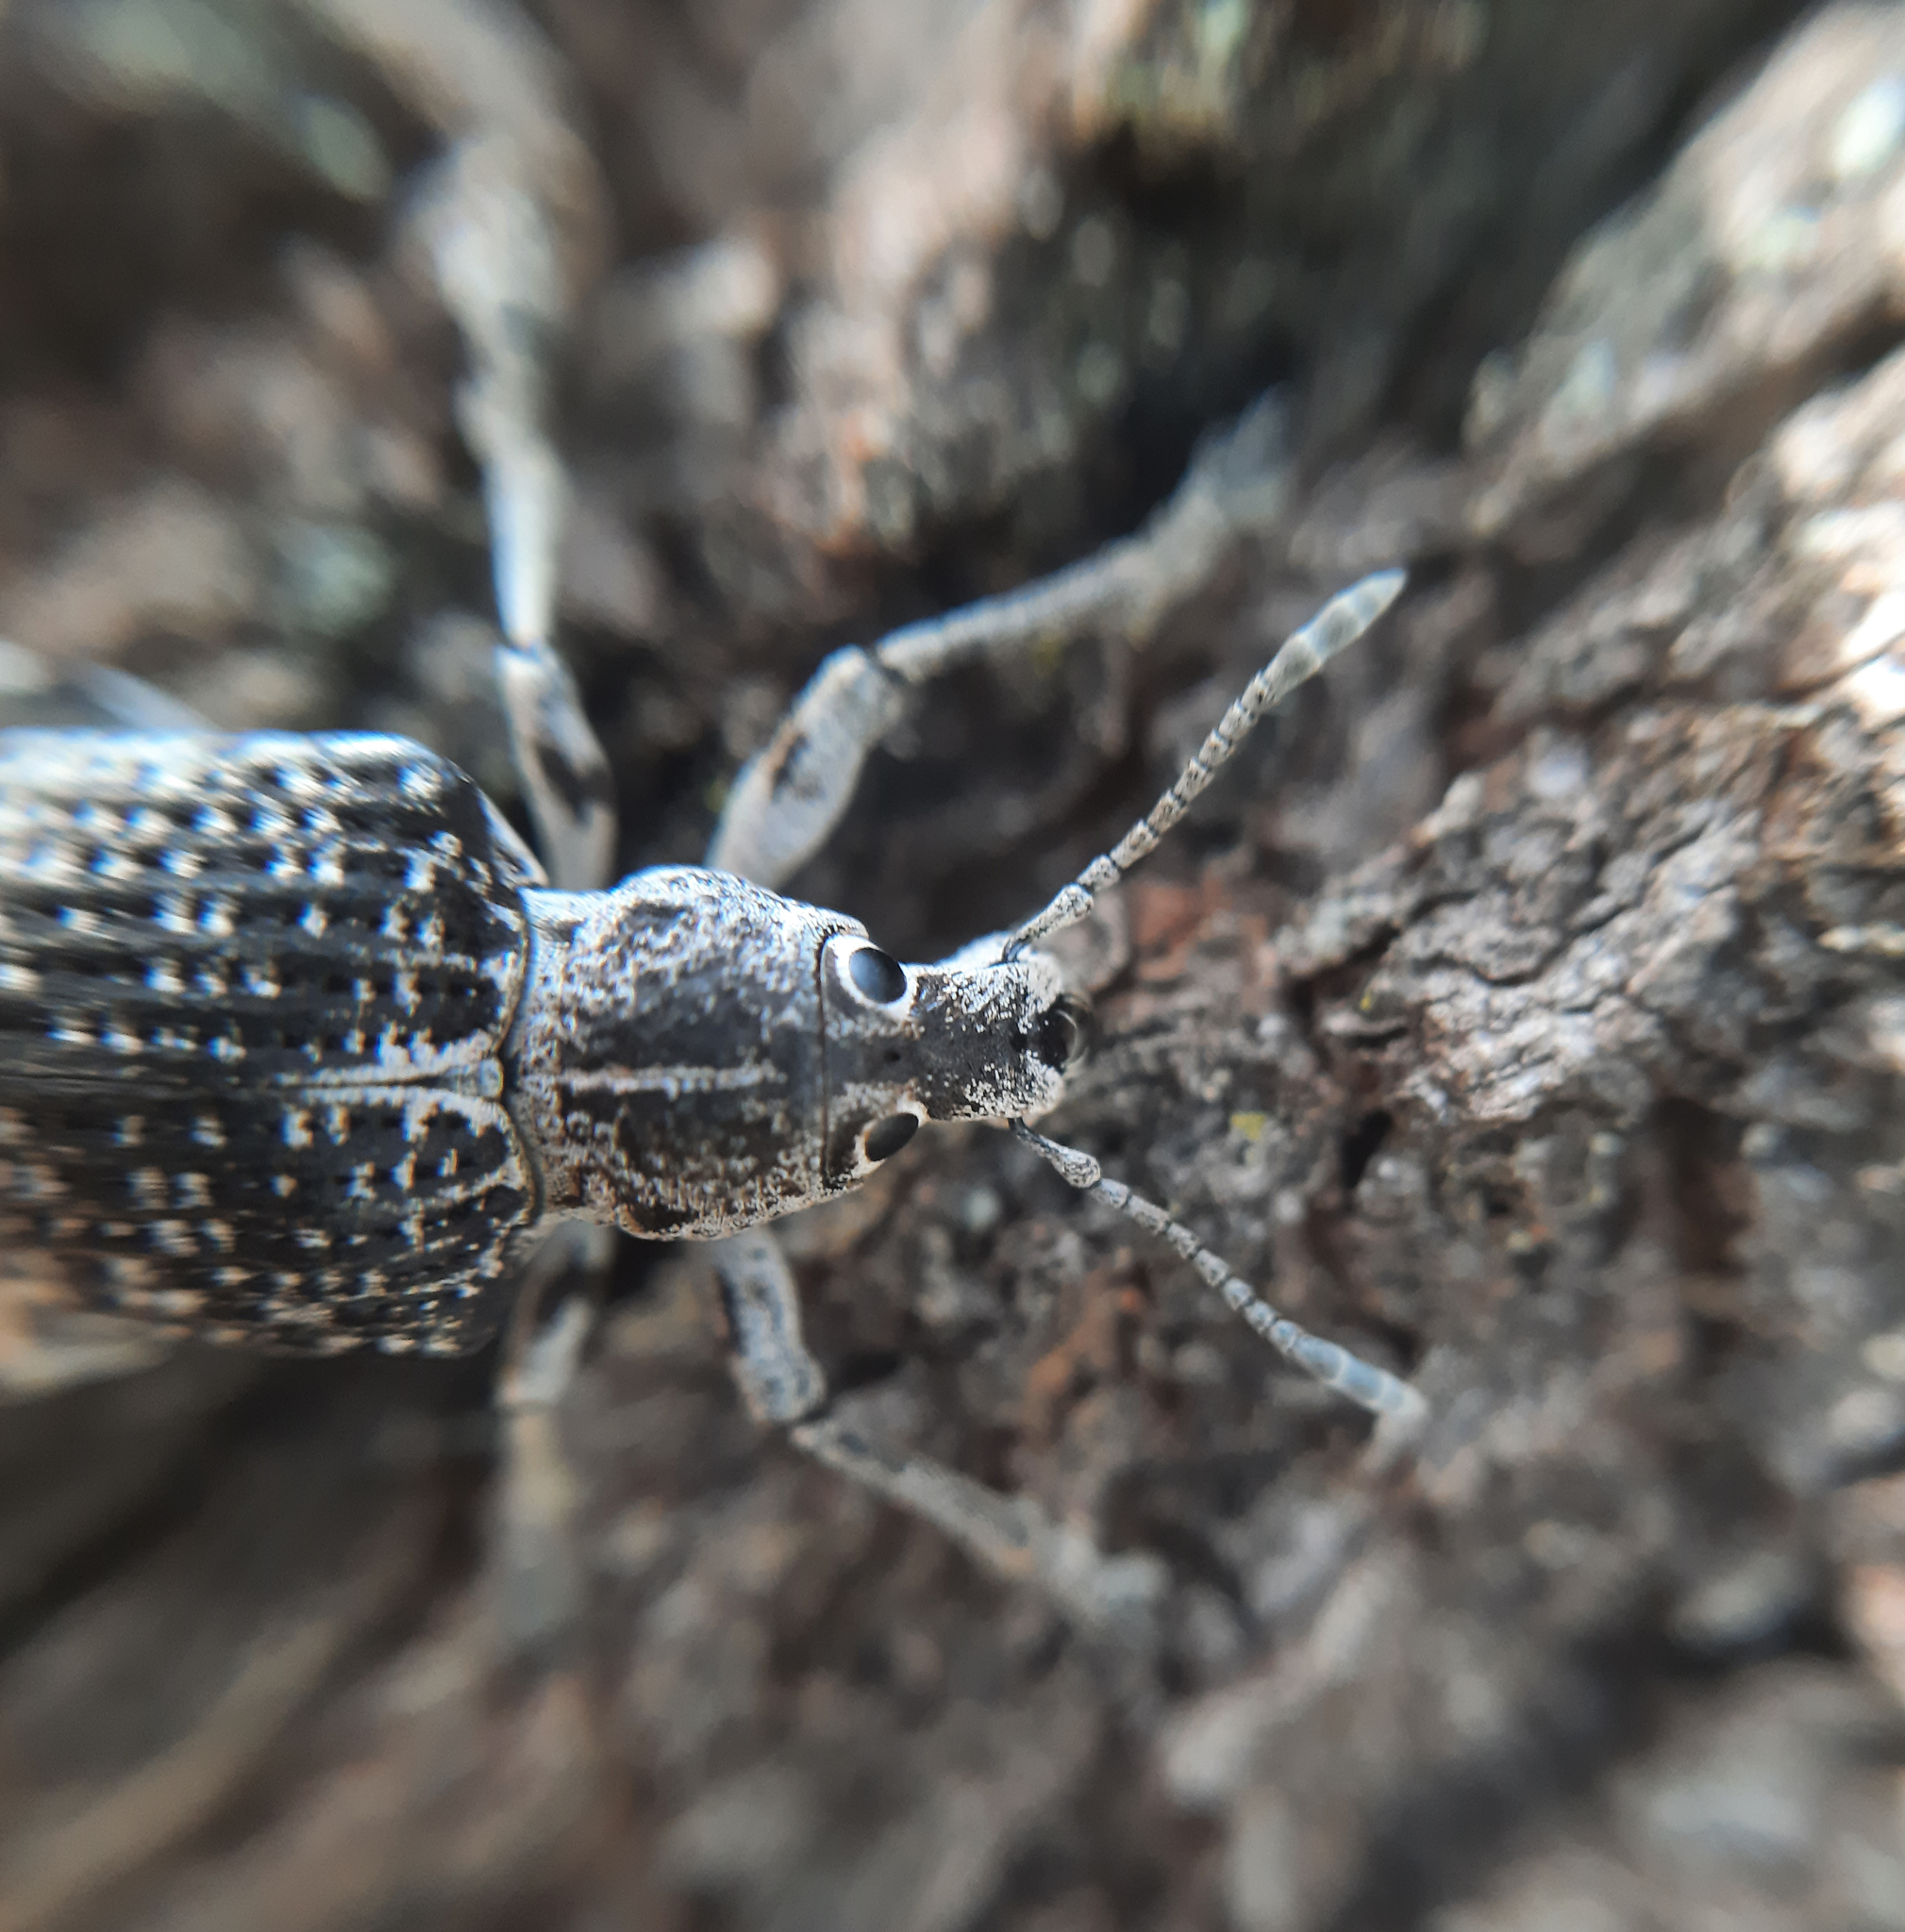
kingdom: Animalia
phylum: Arthropoda
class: Insecta
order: Coleoptera
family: Curculionidae
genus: Cydianerus
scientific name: Cydianerus latruncularius
